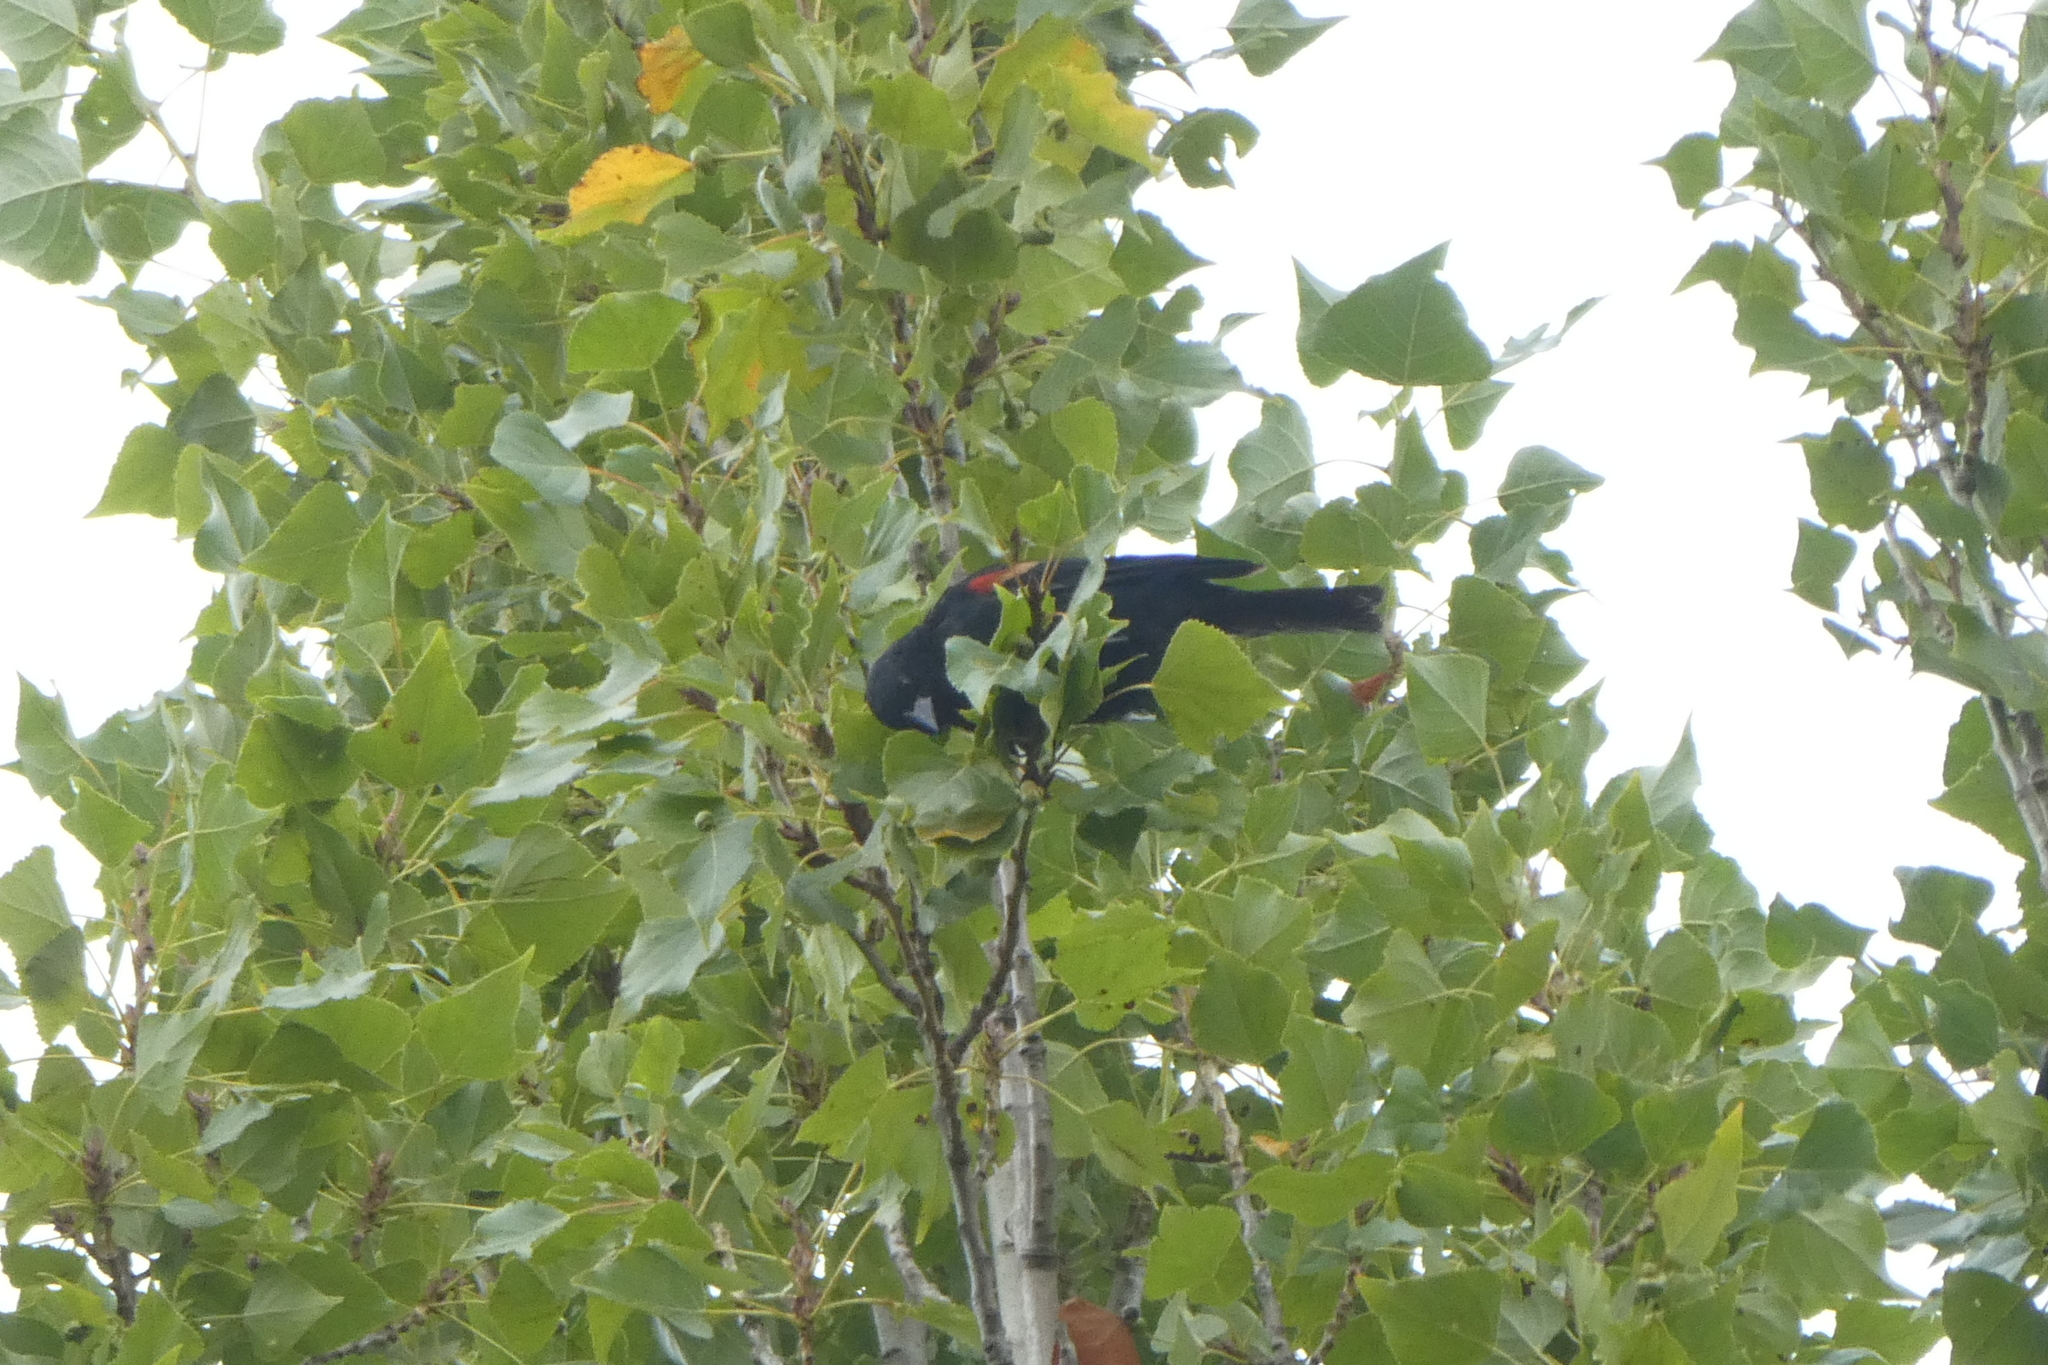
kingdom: Animalia
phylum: Chordata
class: Aves
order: Passeriformes
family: Icteridae
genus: Agelaius
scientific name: Agelaius phoeniceus
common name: Red-winged blackbird
